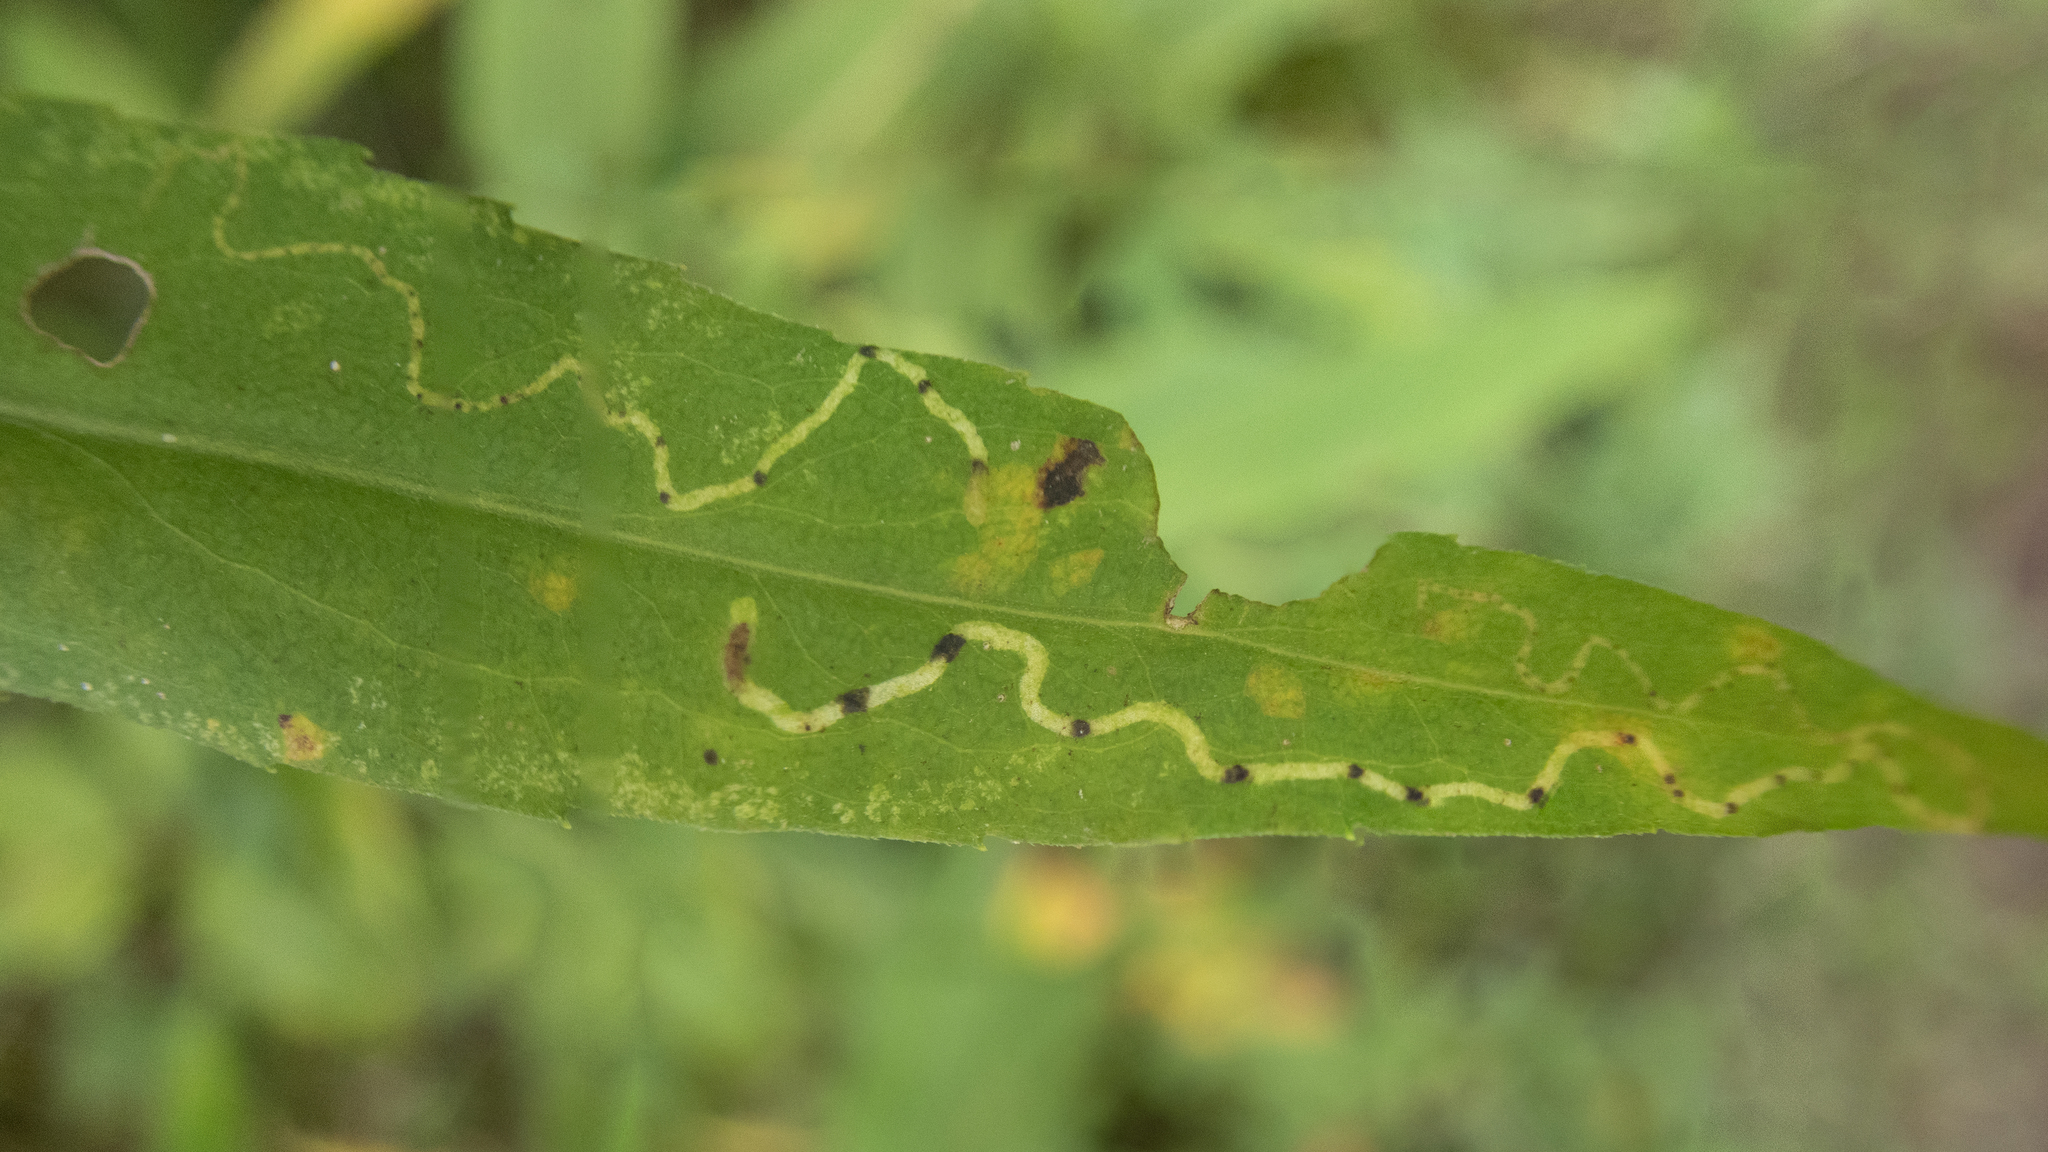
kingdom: Animalia
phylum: Arthropoda
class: Insecta
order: Diptera
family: Agromyzidae
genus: Ophiomyia
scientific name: Ophiomyia parda
